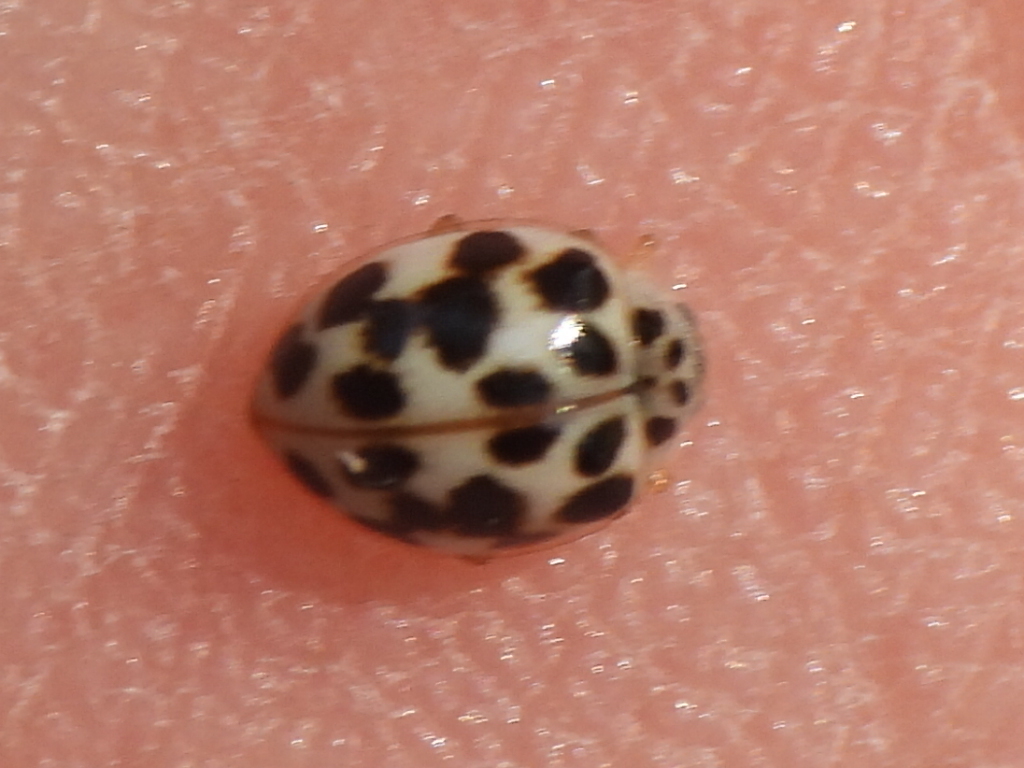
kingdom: Animalia
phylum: Arthropoda
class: Insecta
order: Coleoptera
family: Coccinellidae
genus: Psyllobora
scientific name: Psyllobora vigintimaculata
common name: Ladybird beetle
